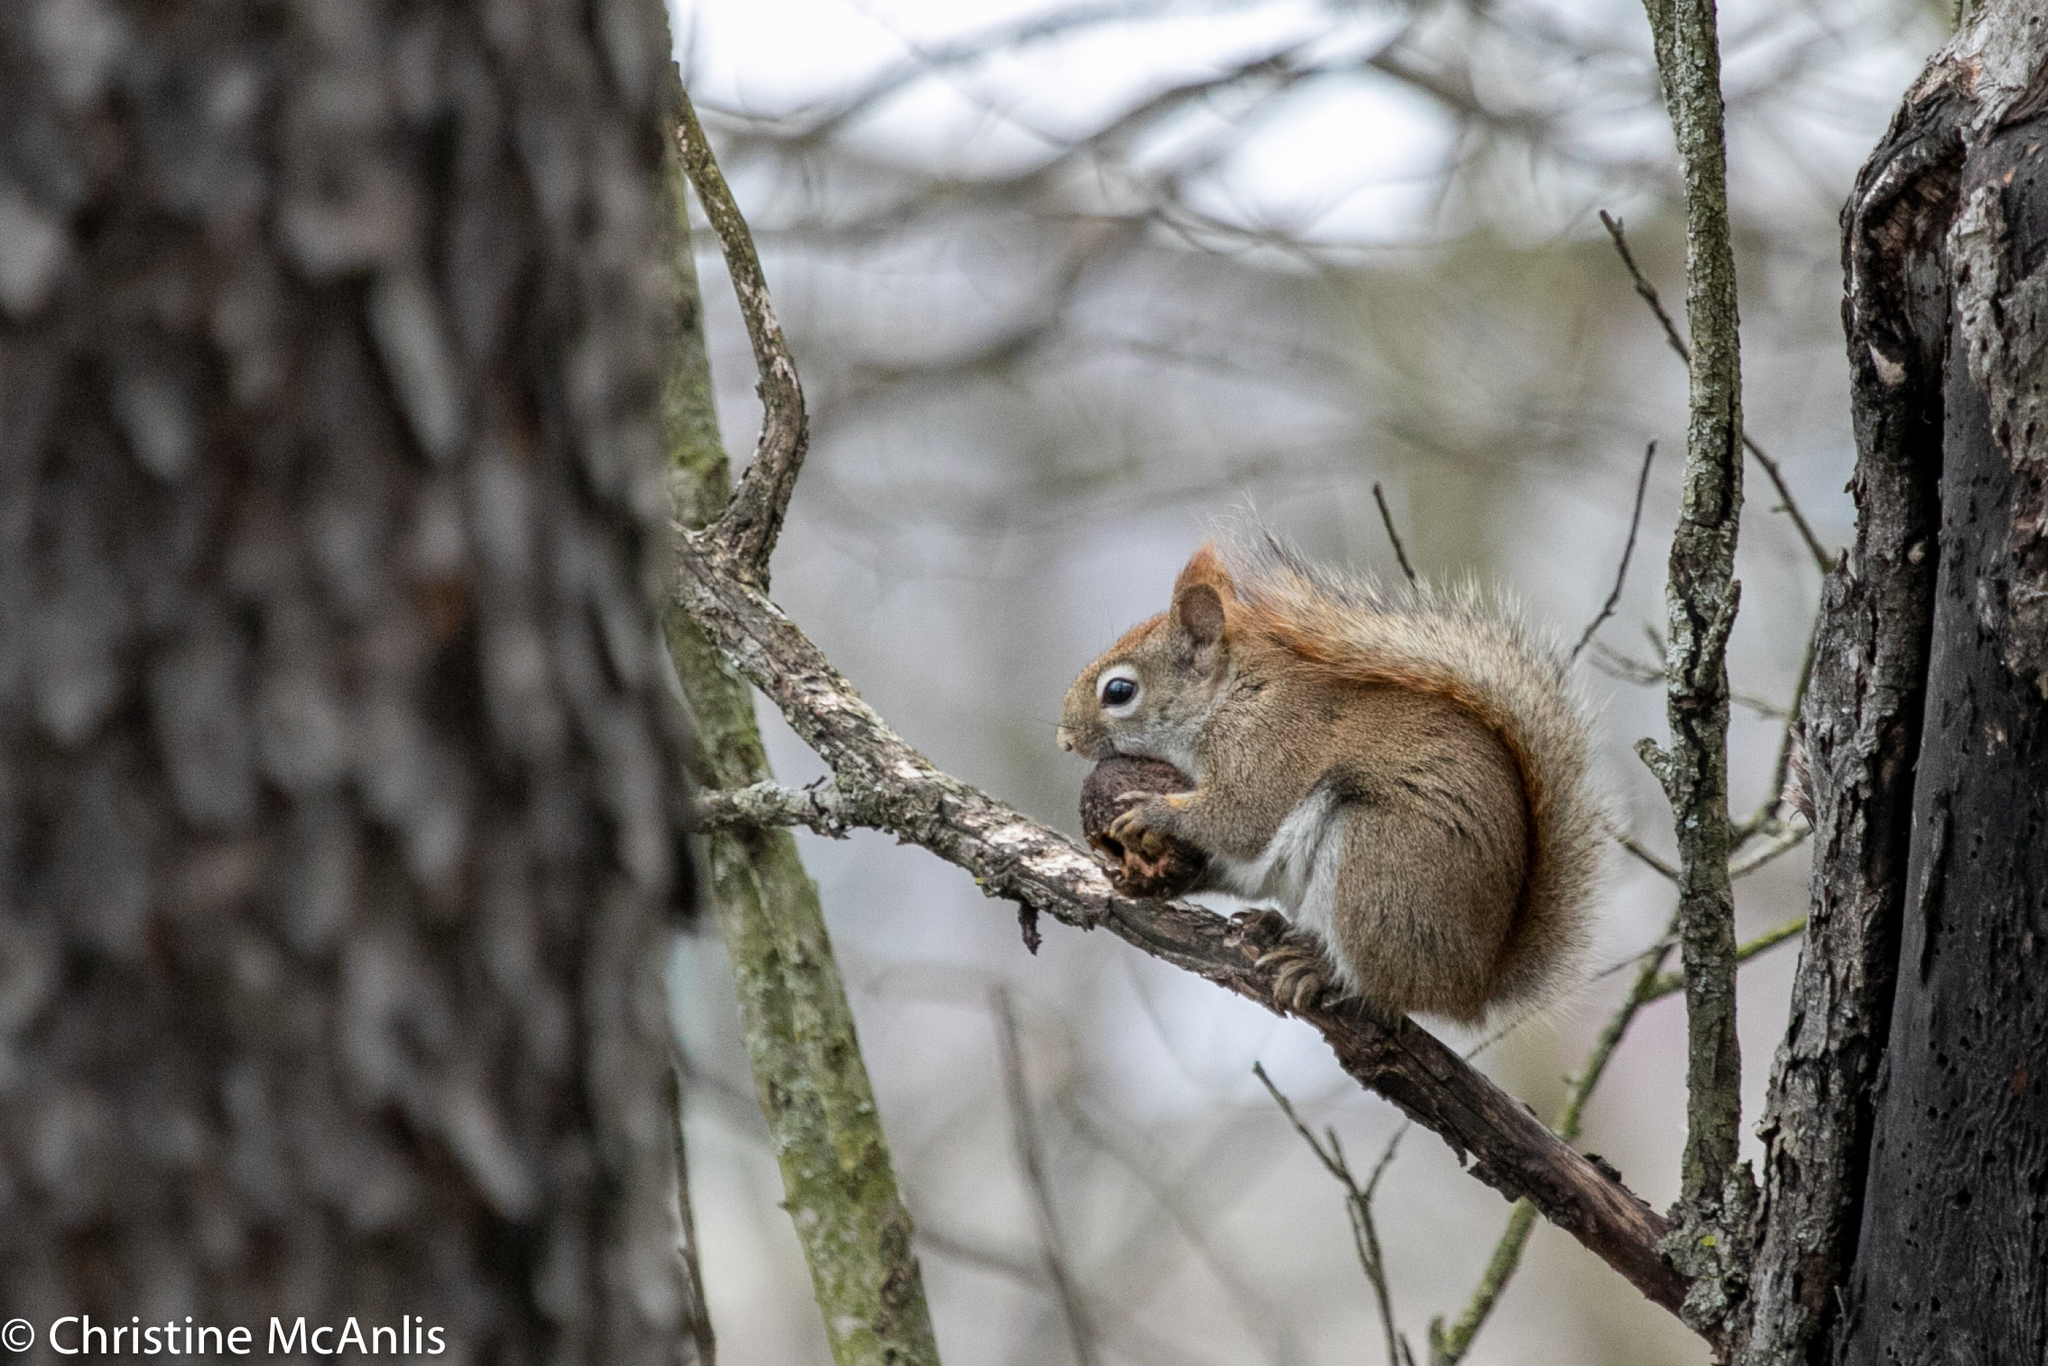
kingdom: Animalia
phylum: Chordata
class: Mammalia
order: Rodentia
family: Sciuridae
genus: Tamiasciurus
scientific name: Tamiasciurus hudsonicus
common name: Red squirrel
